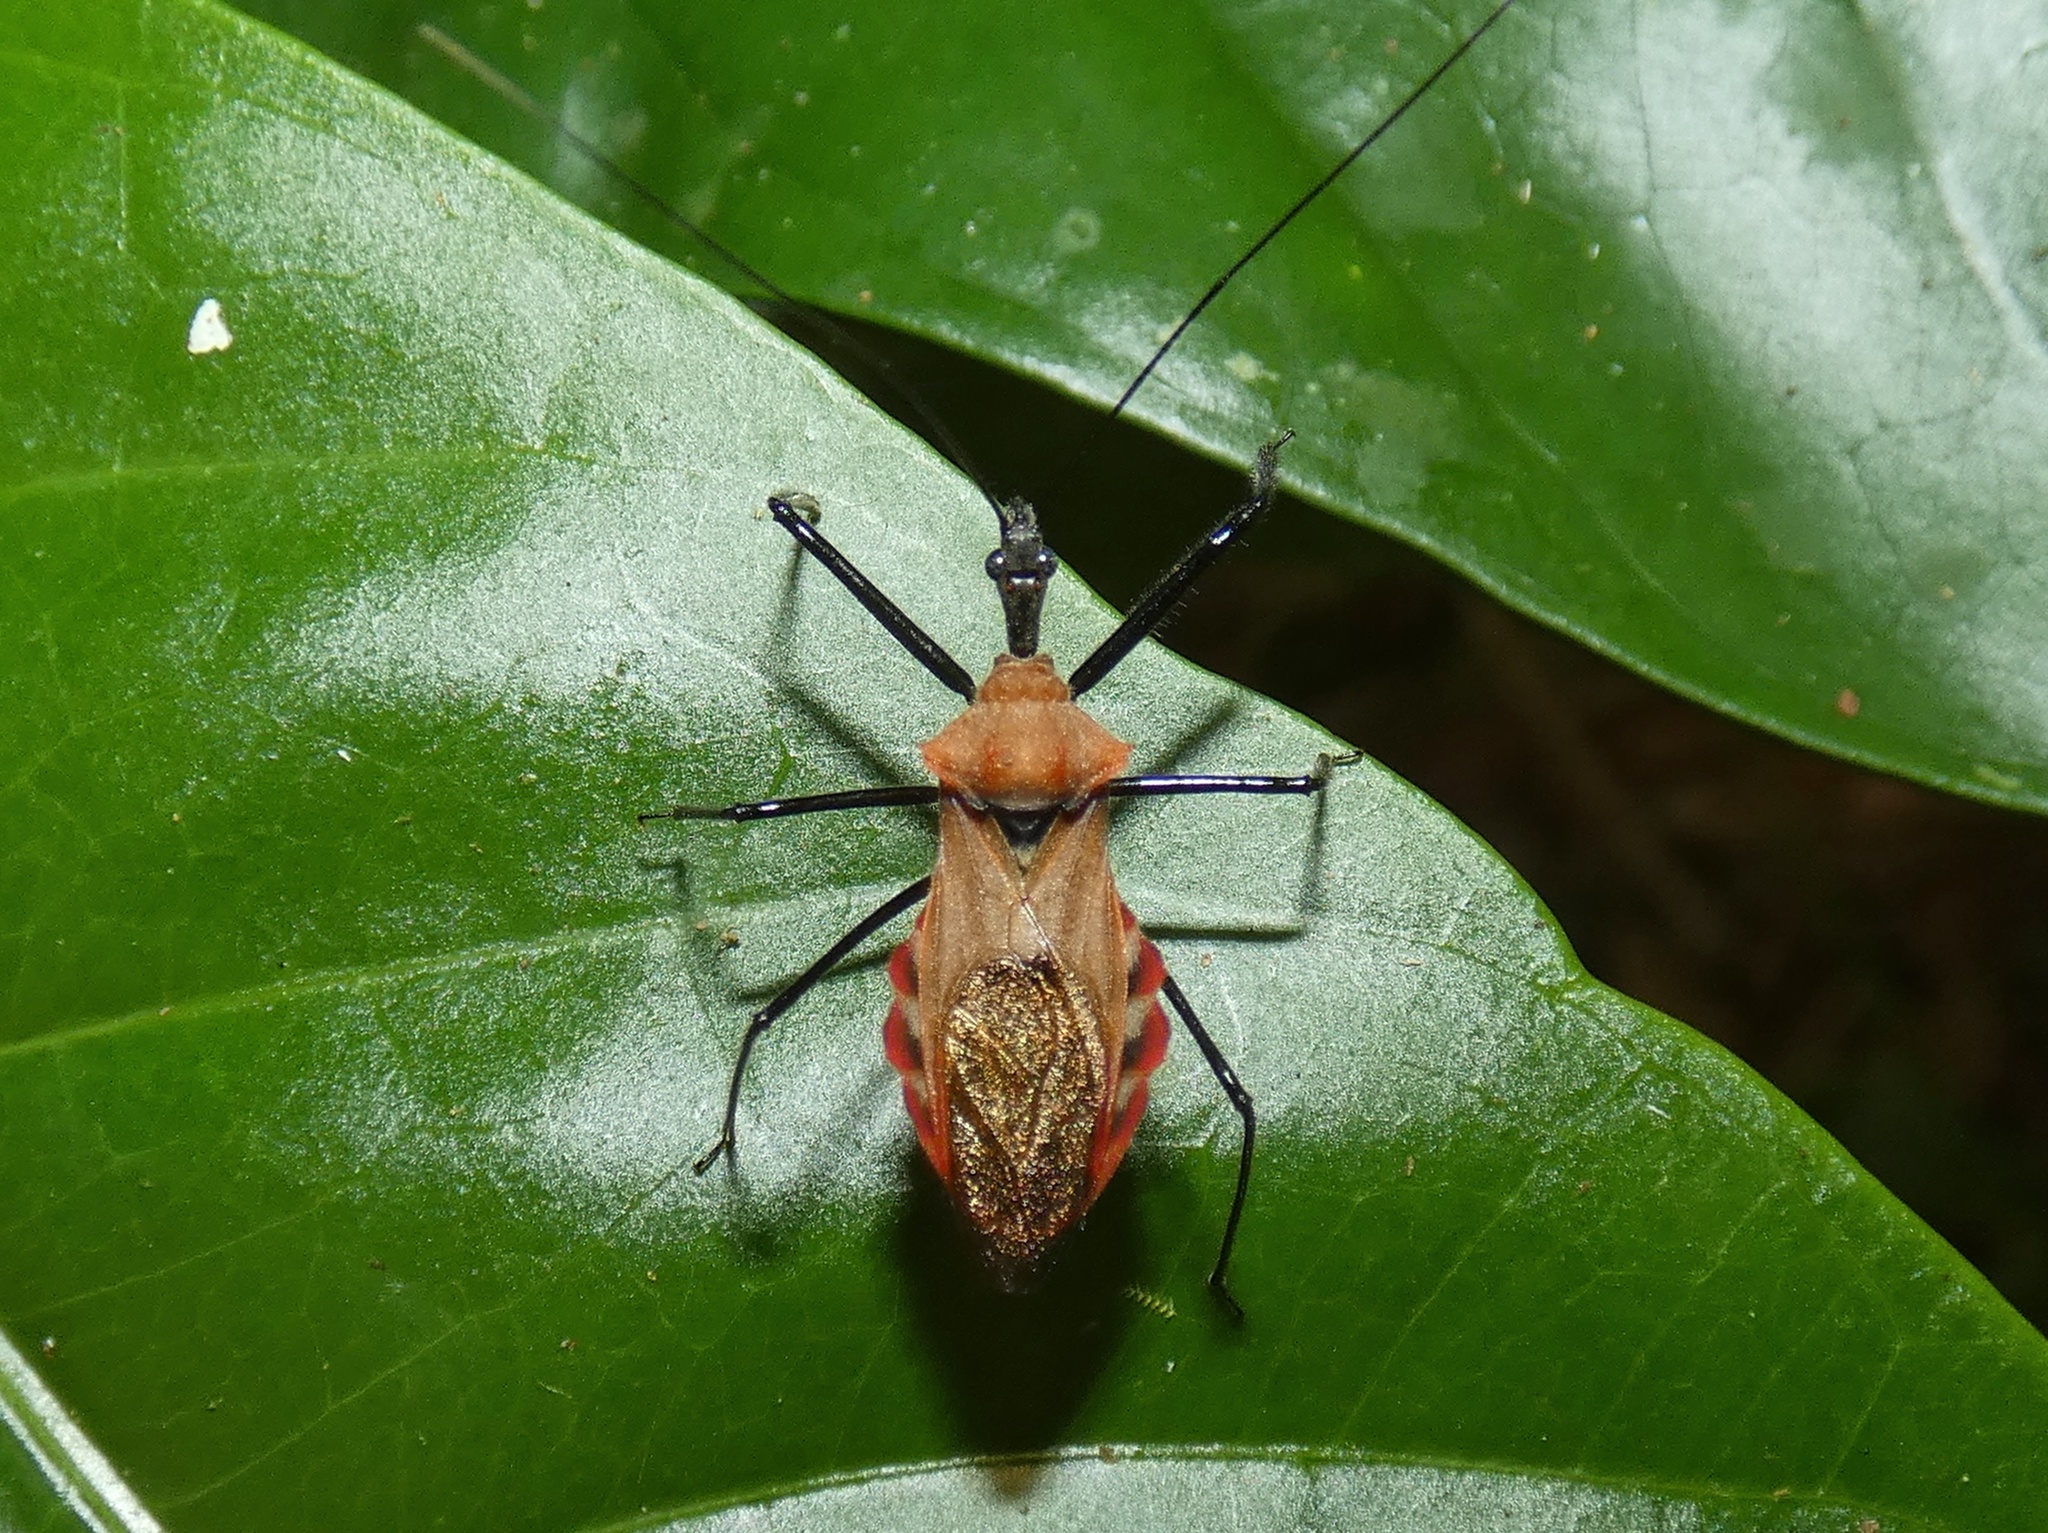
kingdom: Animalia
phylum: Arthropoda
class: Insecta
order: Hemiptera
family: Reduviidae
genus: Montina
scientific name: Montina scutellaris
